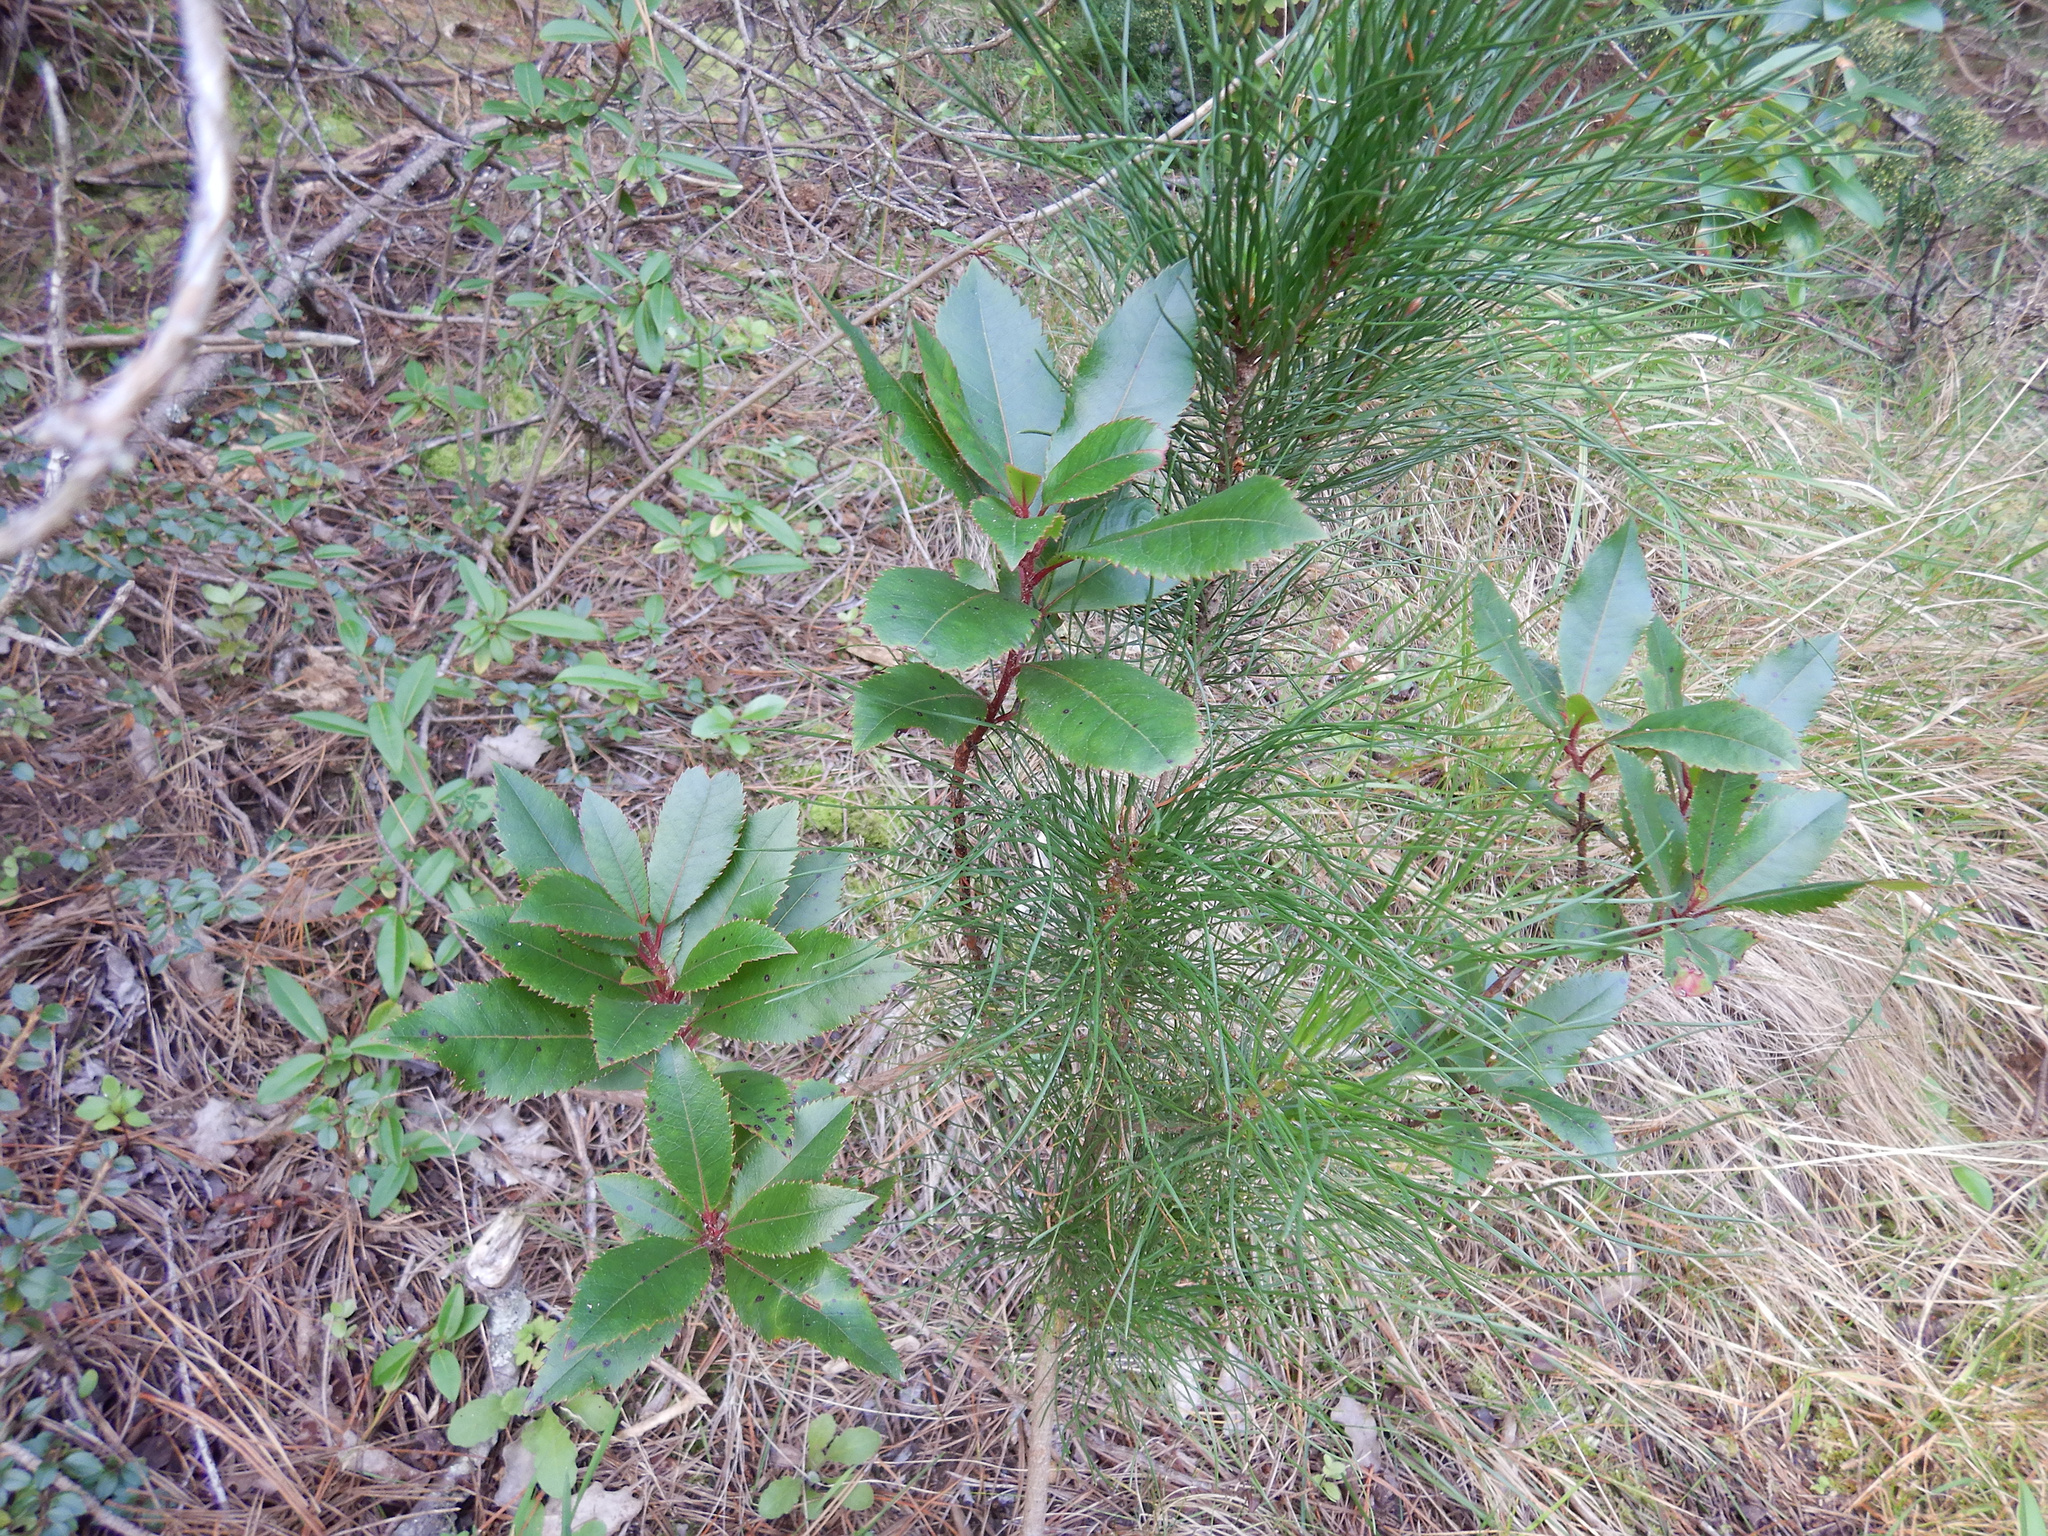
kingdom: Plantae
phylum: Tracheophyta
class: Pinopsida
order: Pinales
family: Pinaceae
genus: Pinus
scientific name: Pinus radiata
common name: Monterey pine
